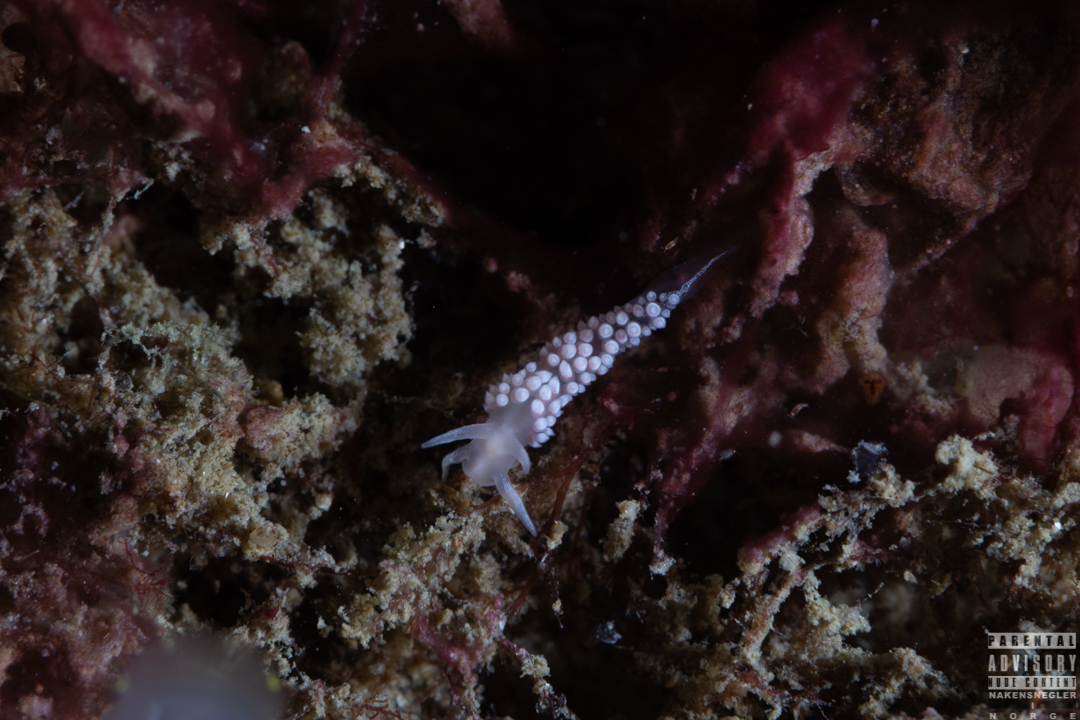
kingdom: Animalia
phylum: Mollusca
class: Gastropoda
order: Nudibranchia
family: Coryphellidae
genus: Coryphella
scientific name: Coryphella verrucosa
